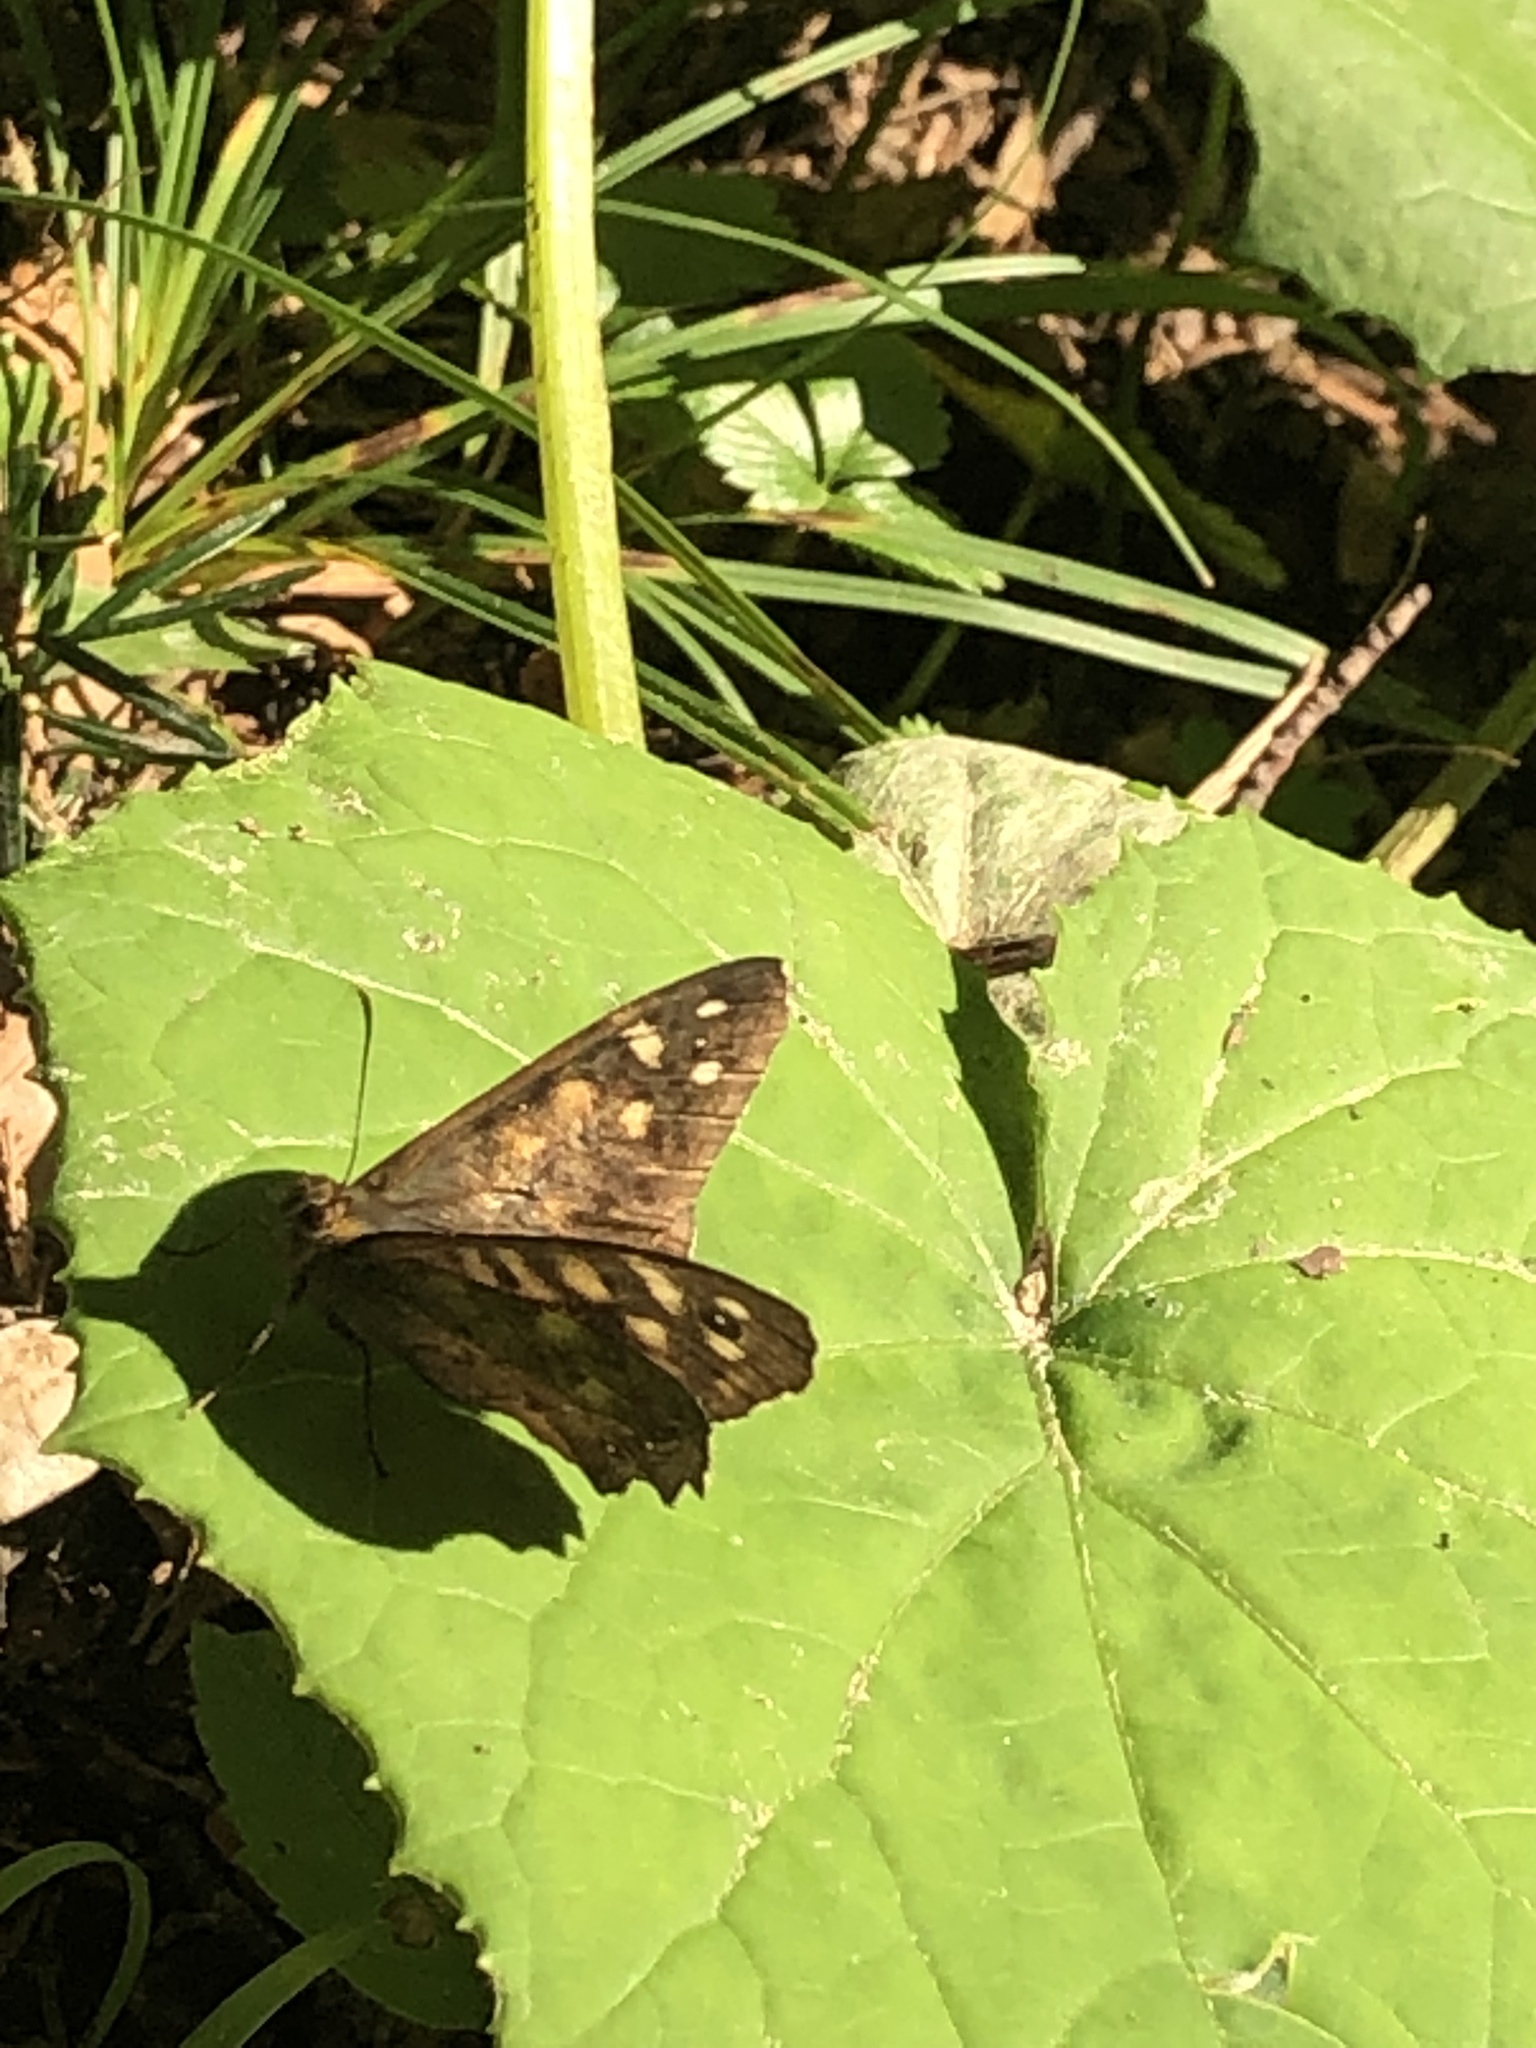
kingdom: Animalia
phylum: Arthropoda
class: Insecta
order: Lepidoptera
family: Nymphalidae
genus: Pararge
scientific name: Pararge aegeria
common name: Speckled wood
